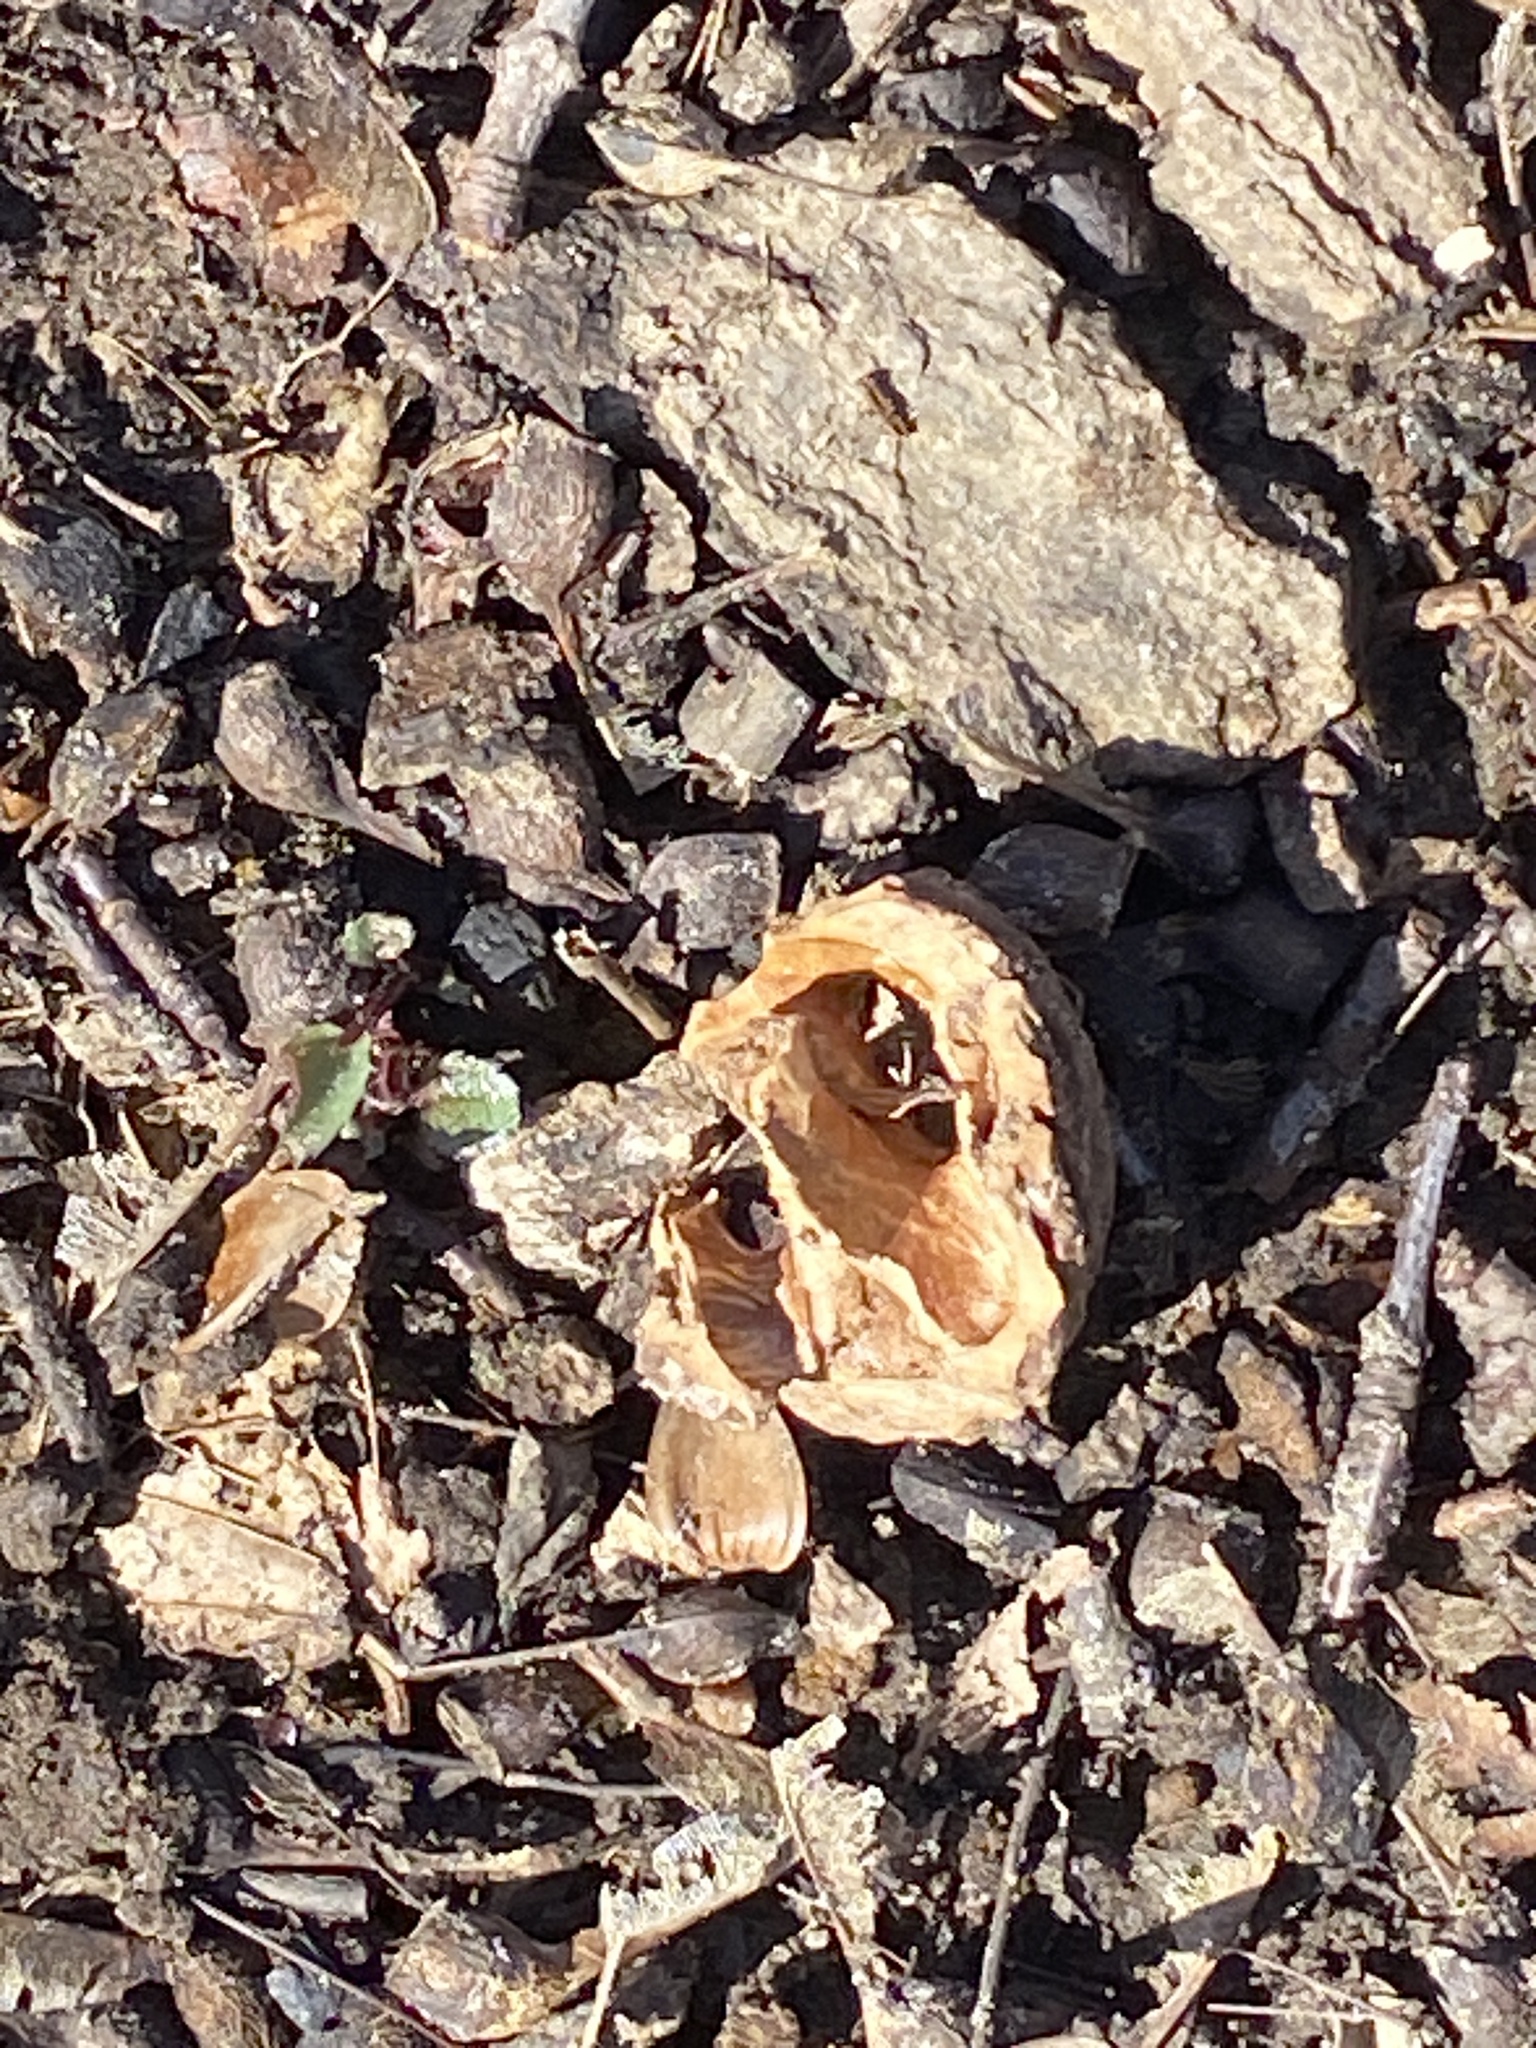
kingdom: Plantae
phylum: Tracheophyta
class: Magnoliopsida
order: Fagales
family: Juglandaceae
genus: Juglans
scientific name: Juglans nigra
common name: Black walnut
